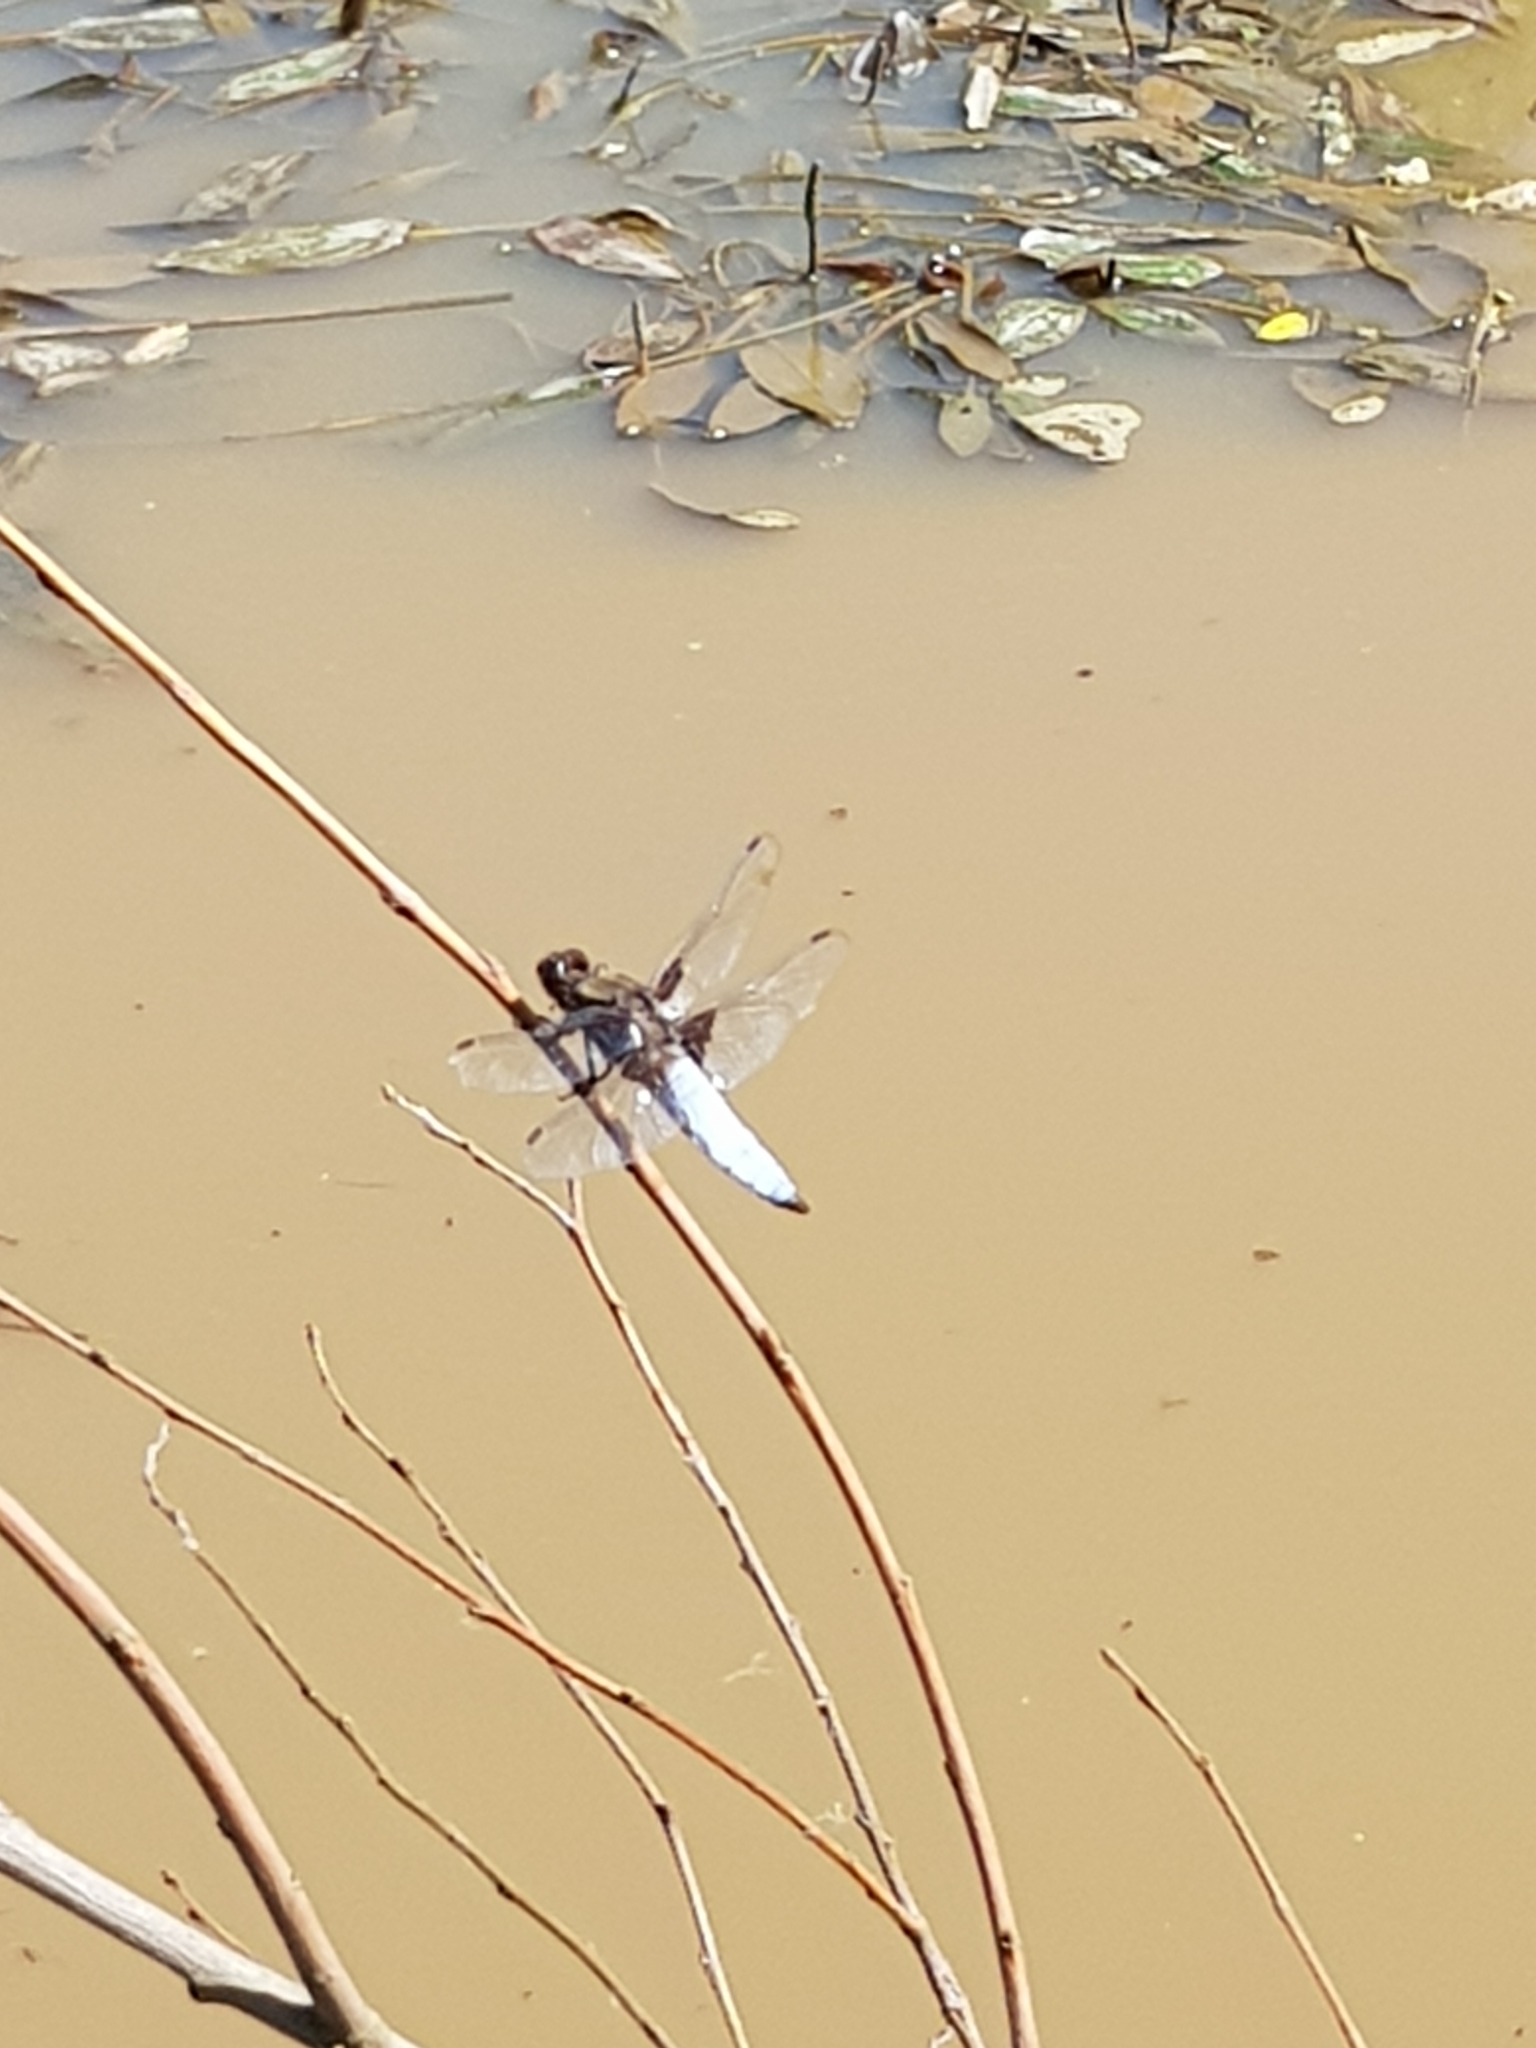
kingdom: Animalia
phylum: Arthropoda
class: Insecta
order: Odonata
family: Libellulidae
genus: Libellula
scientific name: Libellula depressa
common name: Broad-bodied chaser
